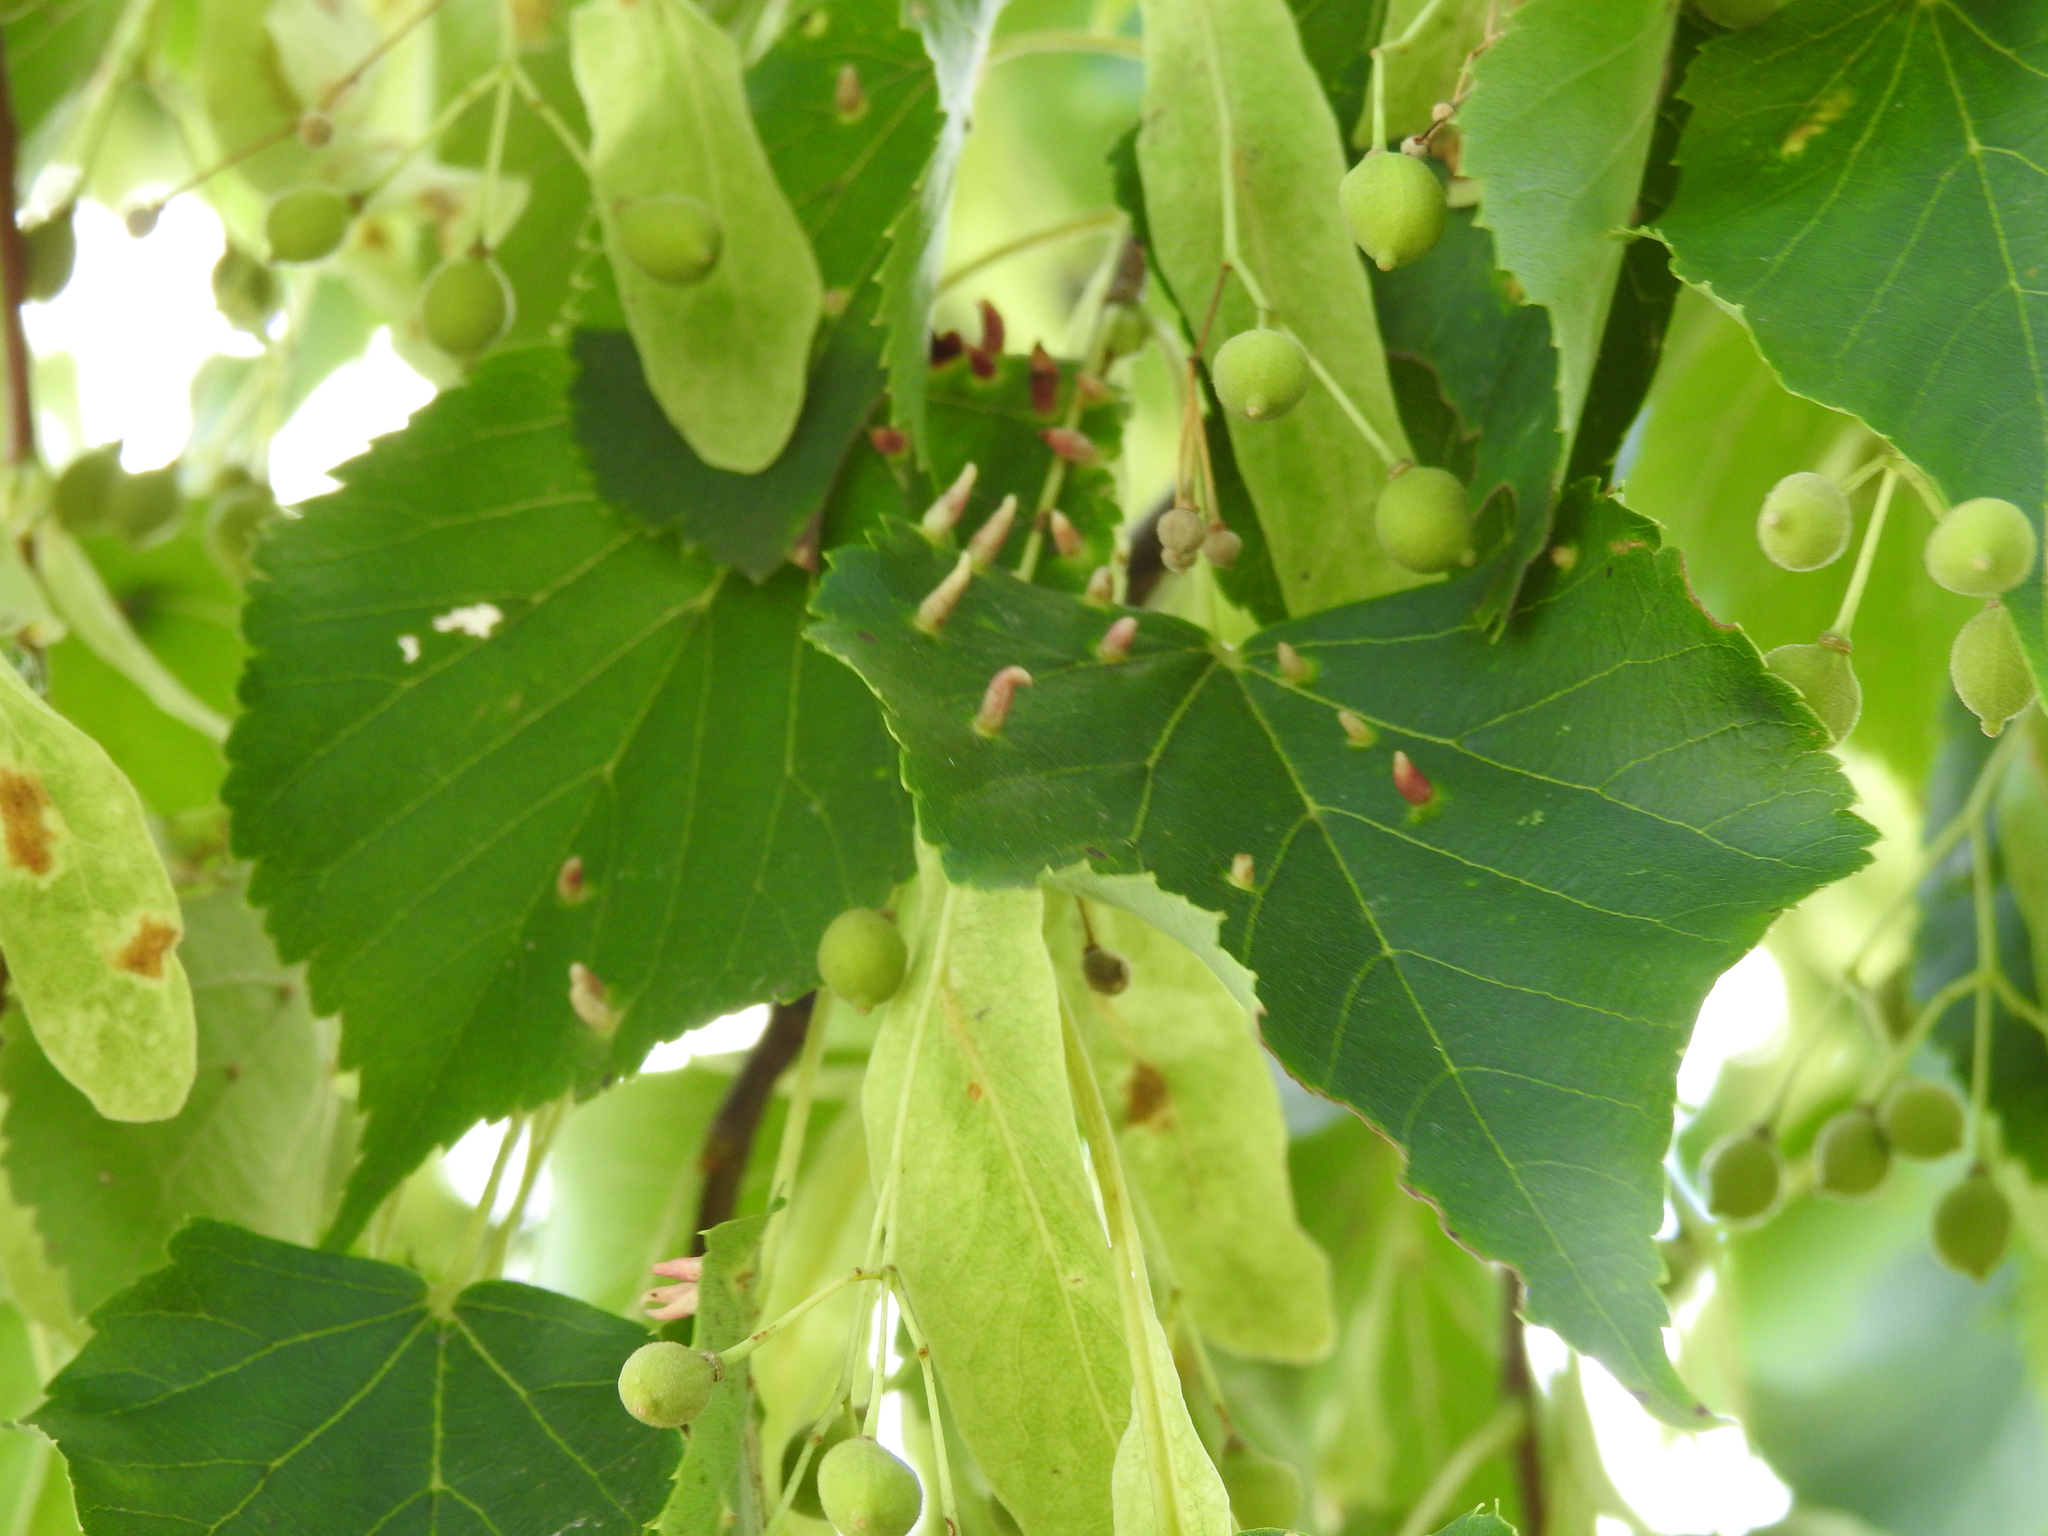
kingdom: Animalia
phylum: Arthropoda
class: Arachnida
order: Trombidiformes
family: Eriophyidae
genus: Eriophyes
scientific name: Eriophyes tiliae
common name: Red nail gall mite
